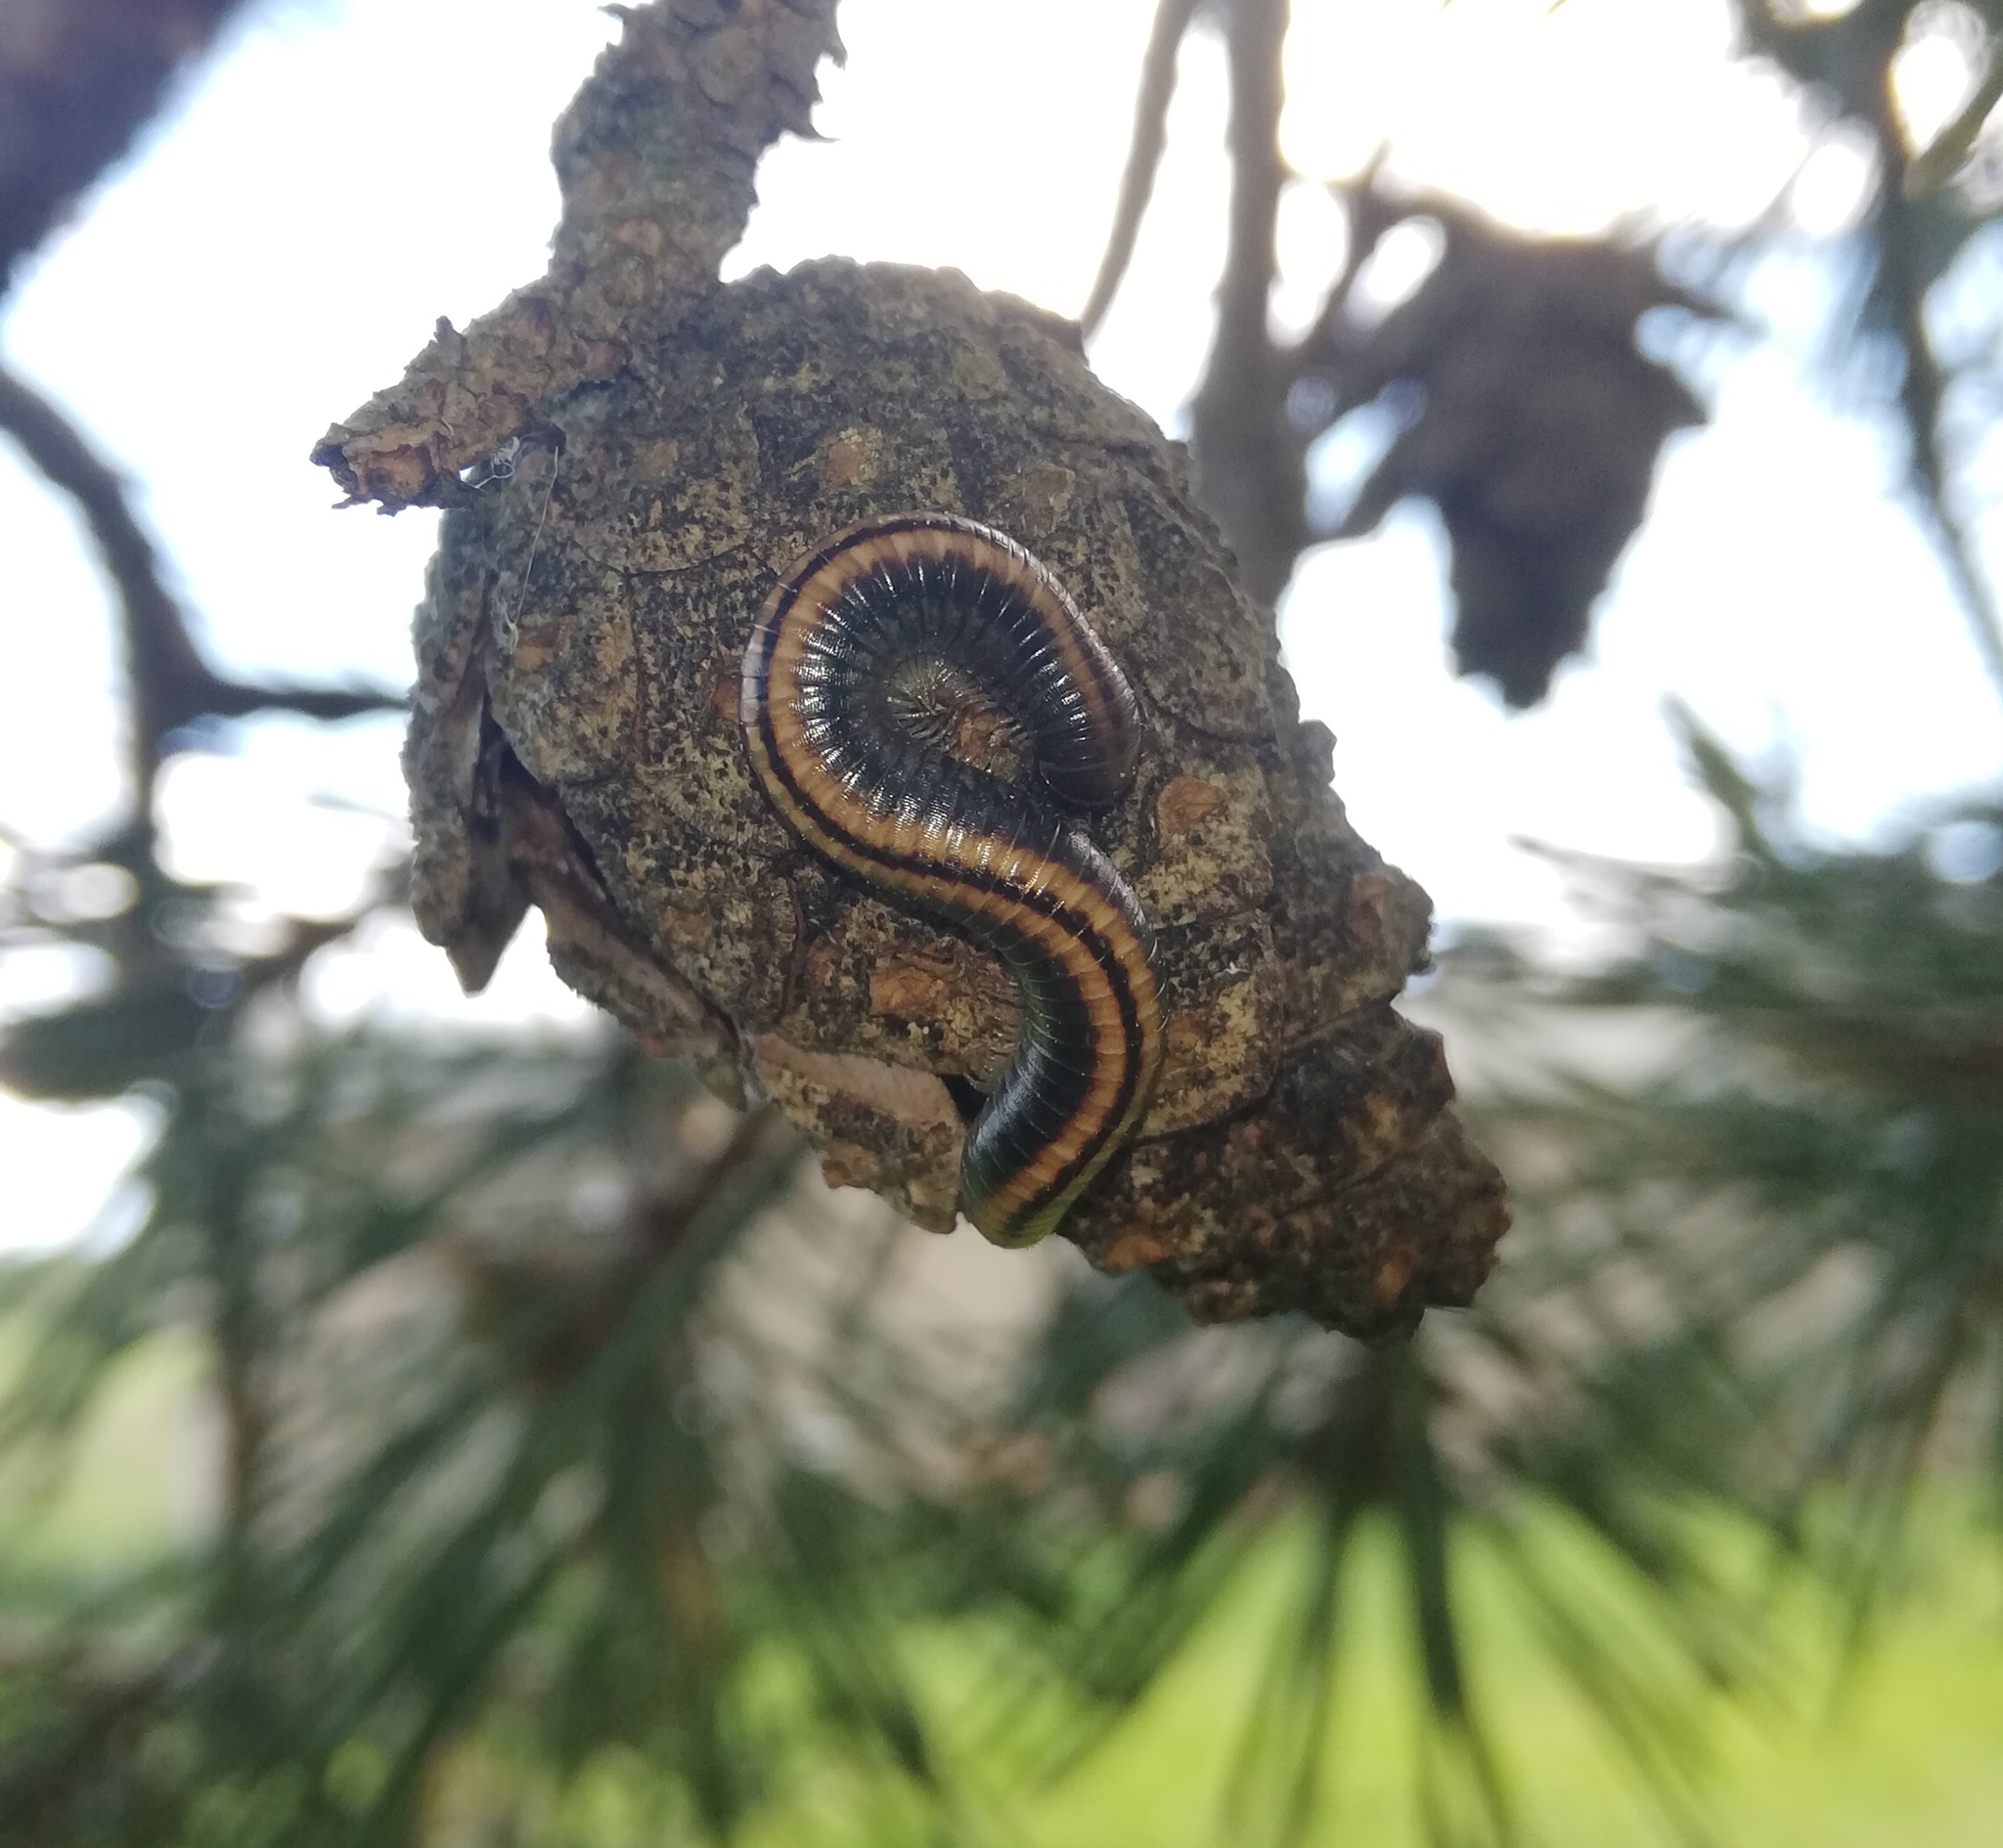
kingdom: Animalia
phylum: Arthropoda
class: Diplopoda
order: Julida
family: Julidae
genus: Ommatoiulus
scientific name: Ommatoiulus sabulosus
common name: Striped millipede
